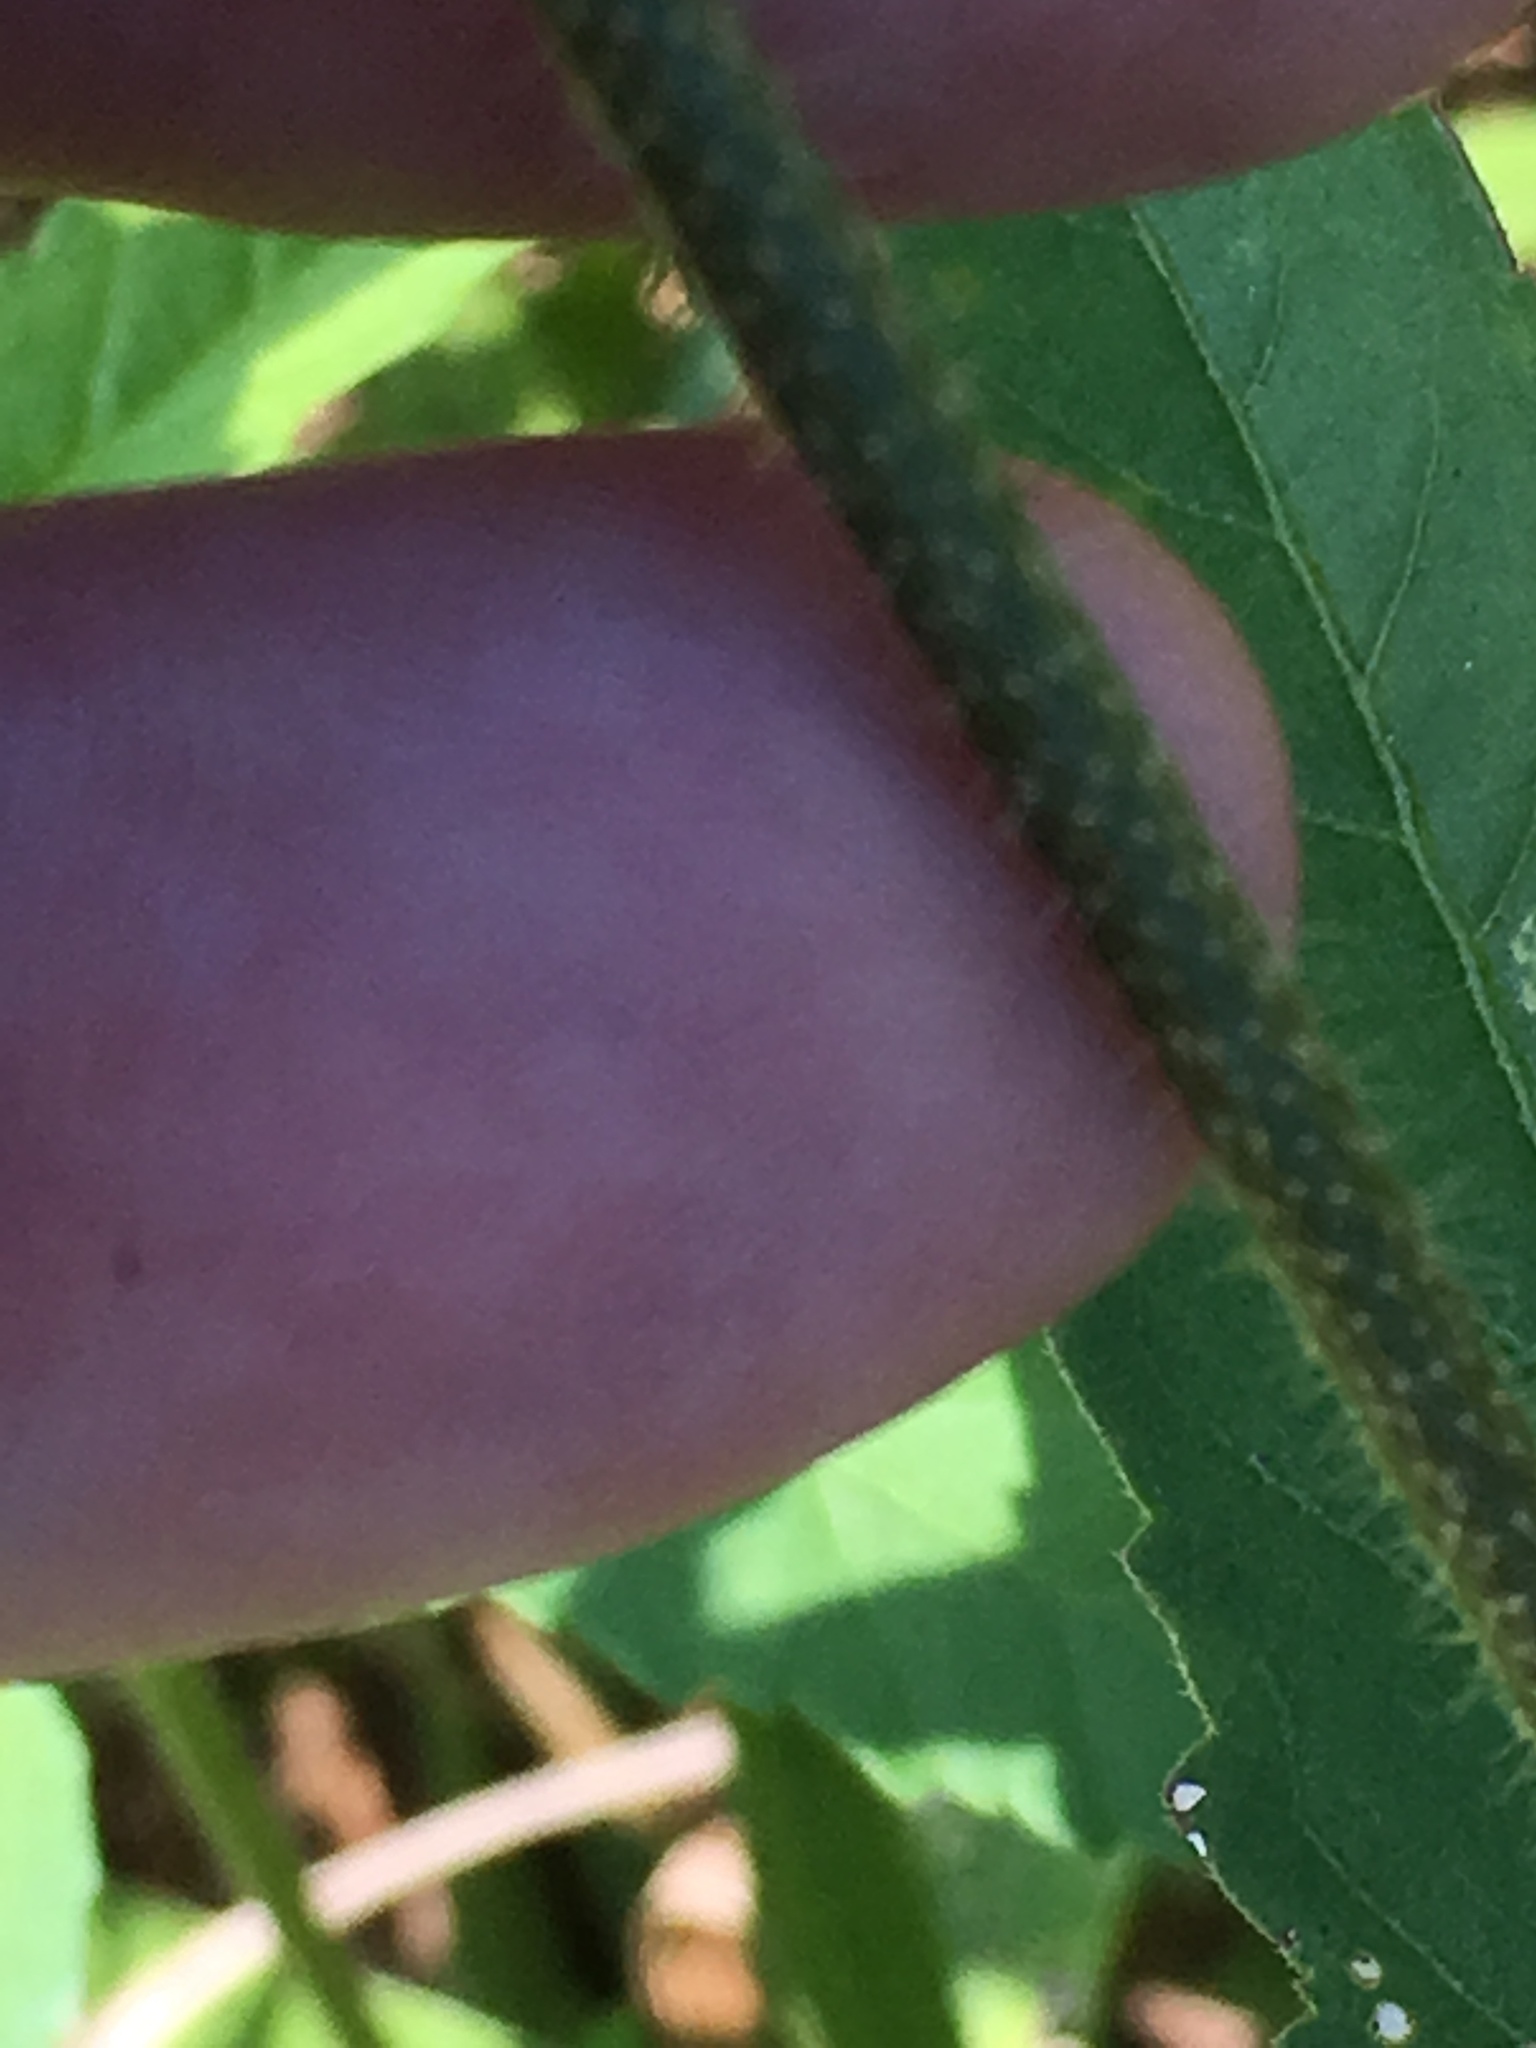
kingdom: Plantae
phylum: Tracheophyta
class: Magnoliopsida
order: Malpighiales
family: Euphorbiaceae
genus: Croton
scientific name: Croton glandulosus
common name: Tropic croton
